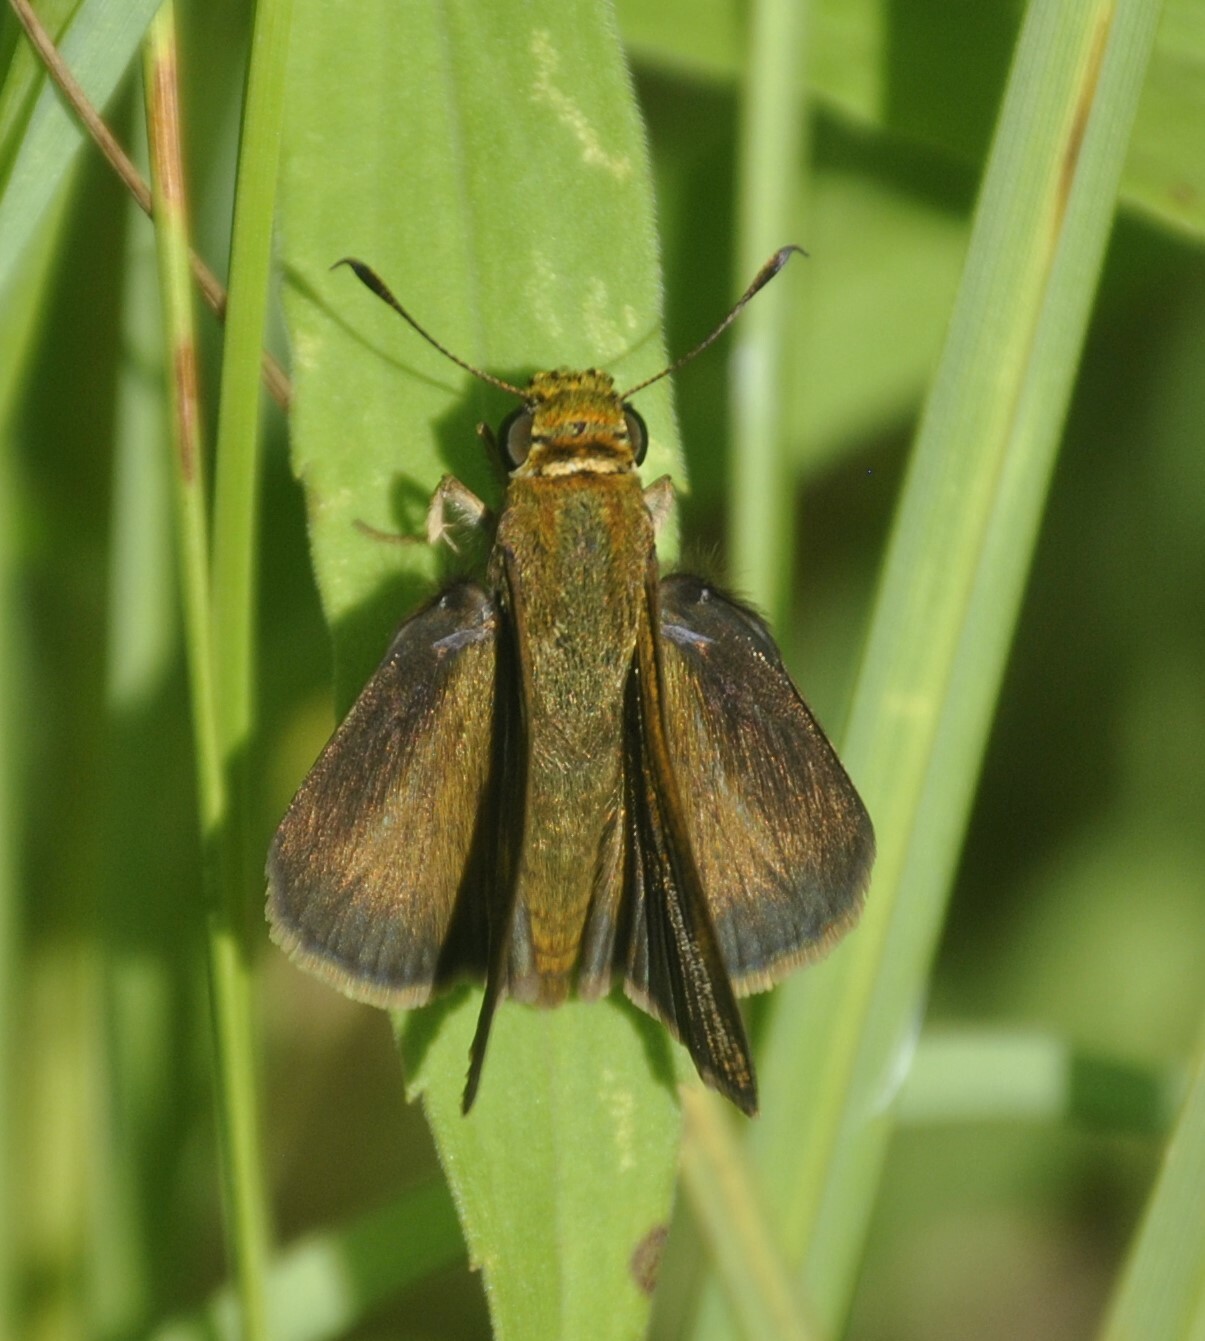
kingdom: Animalia
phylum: Arthropoda
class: Insecta
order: Lepidoptera
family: Hesperiidae
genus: Euphyes
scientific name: Euphyes vestris
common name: Dun skipper
